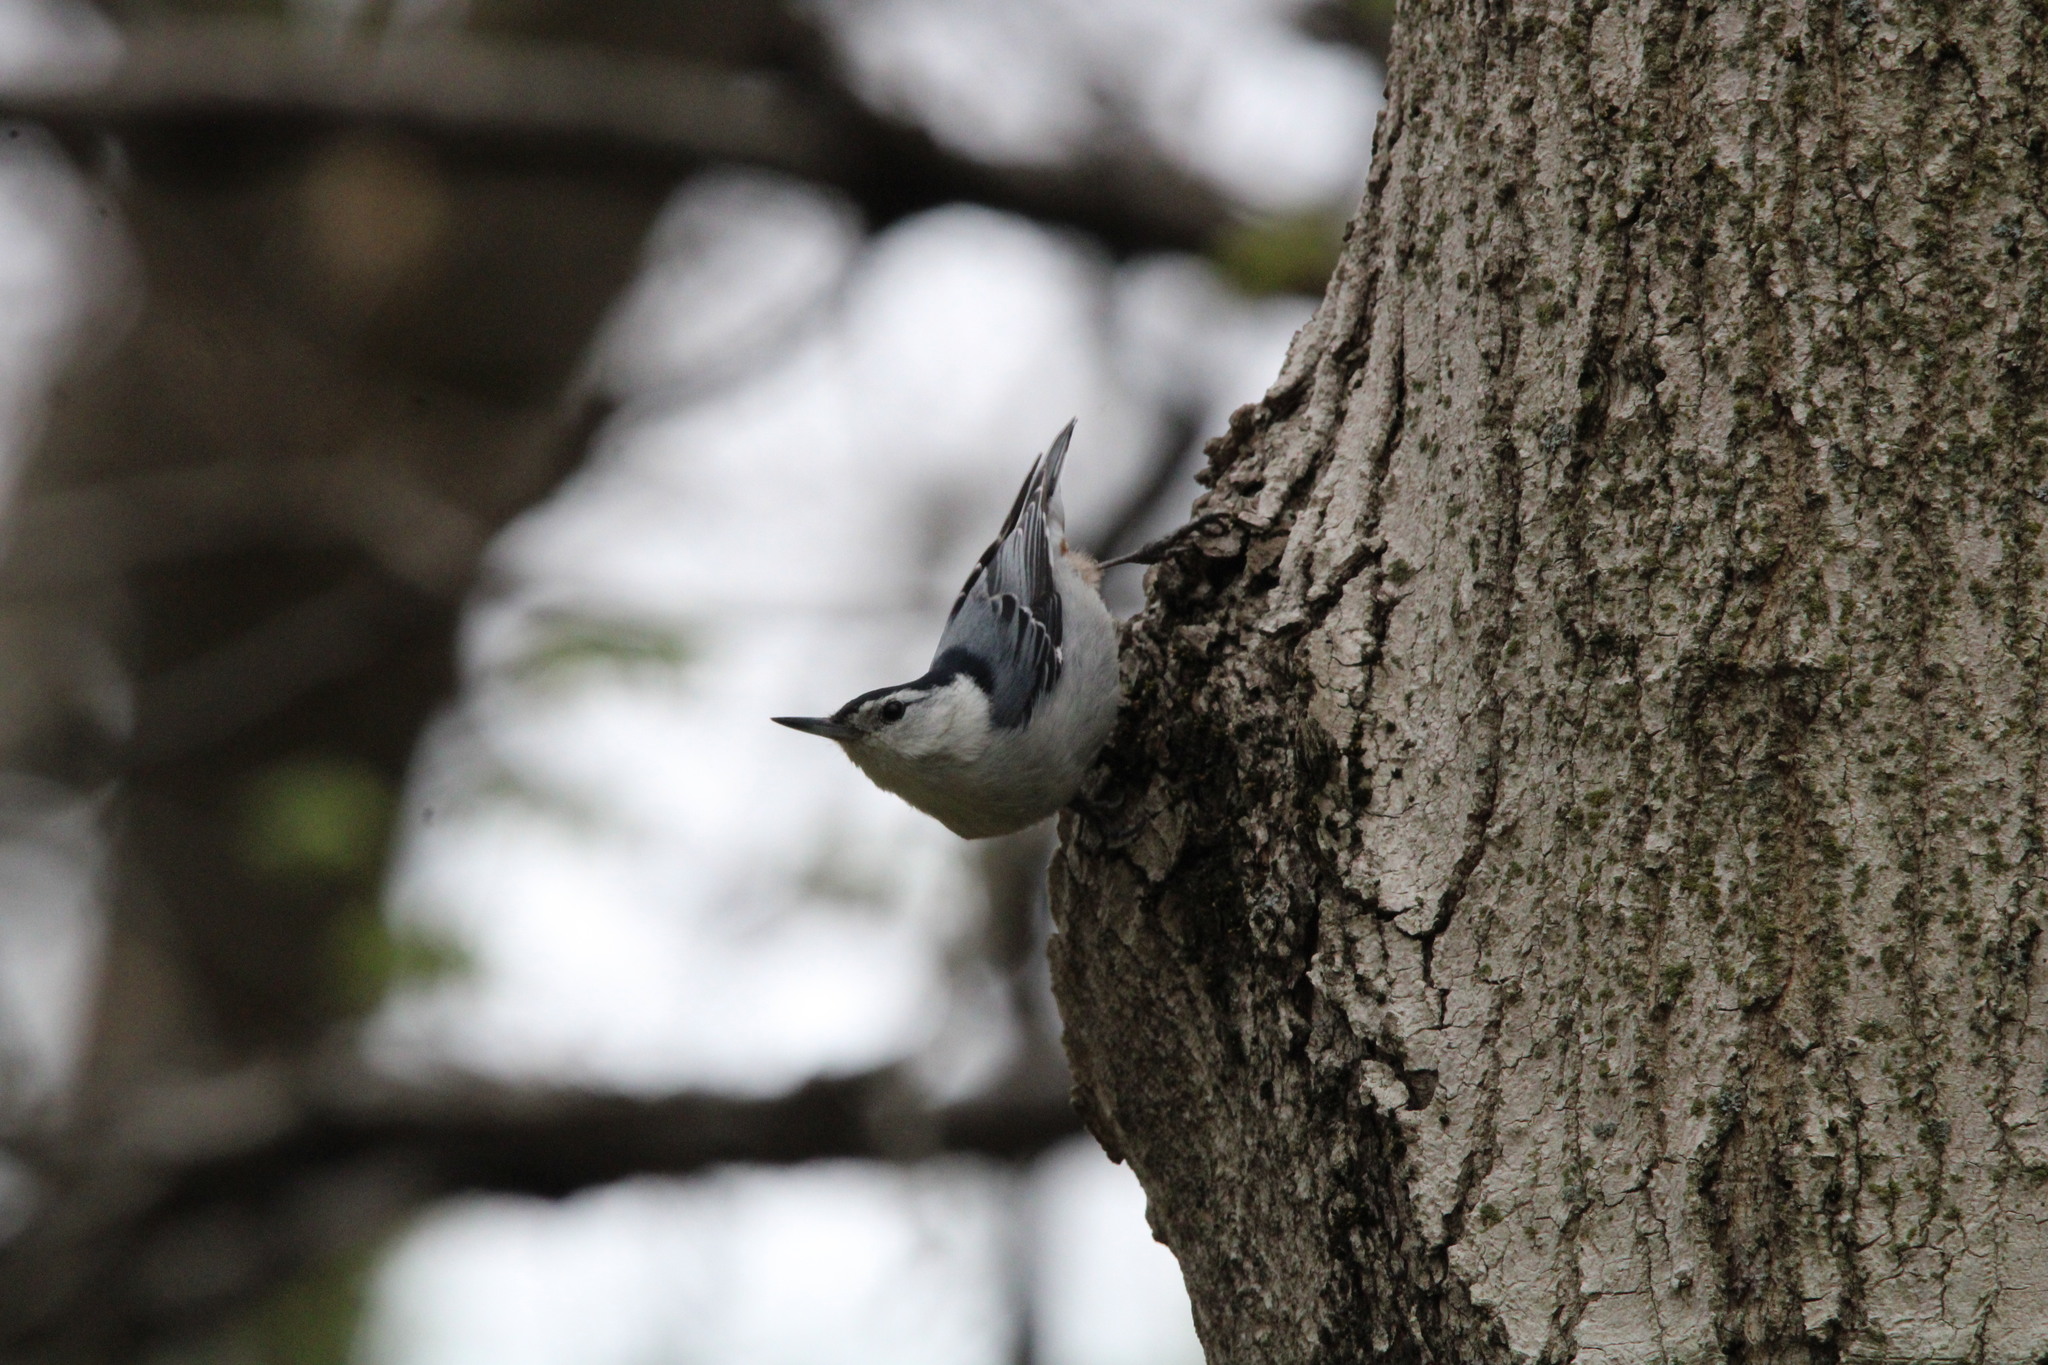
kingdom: Animalia
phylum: Chordata
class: Aves
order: Passeriformes
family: Sittidae
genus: Sitta
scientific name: Sitta carolinensis
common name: White-breasted nuthatch
